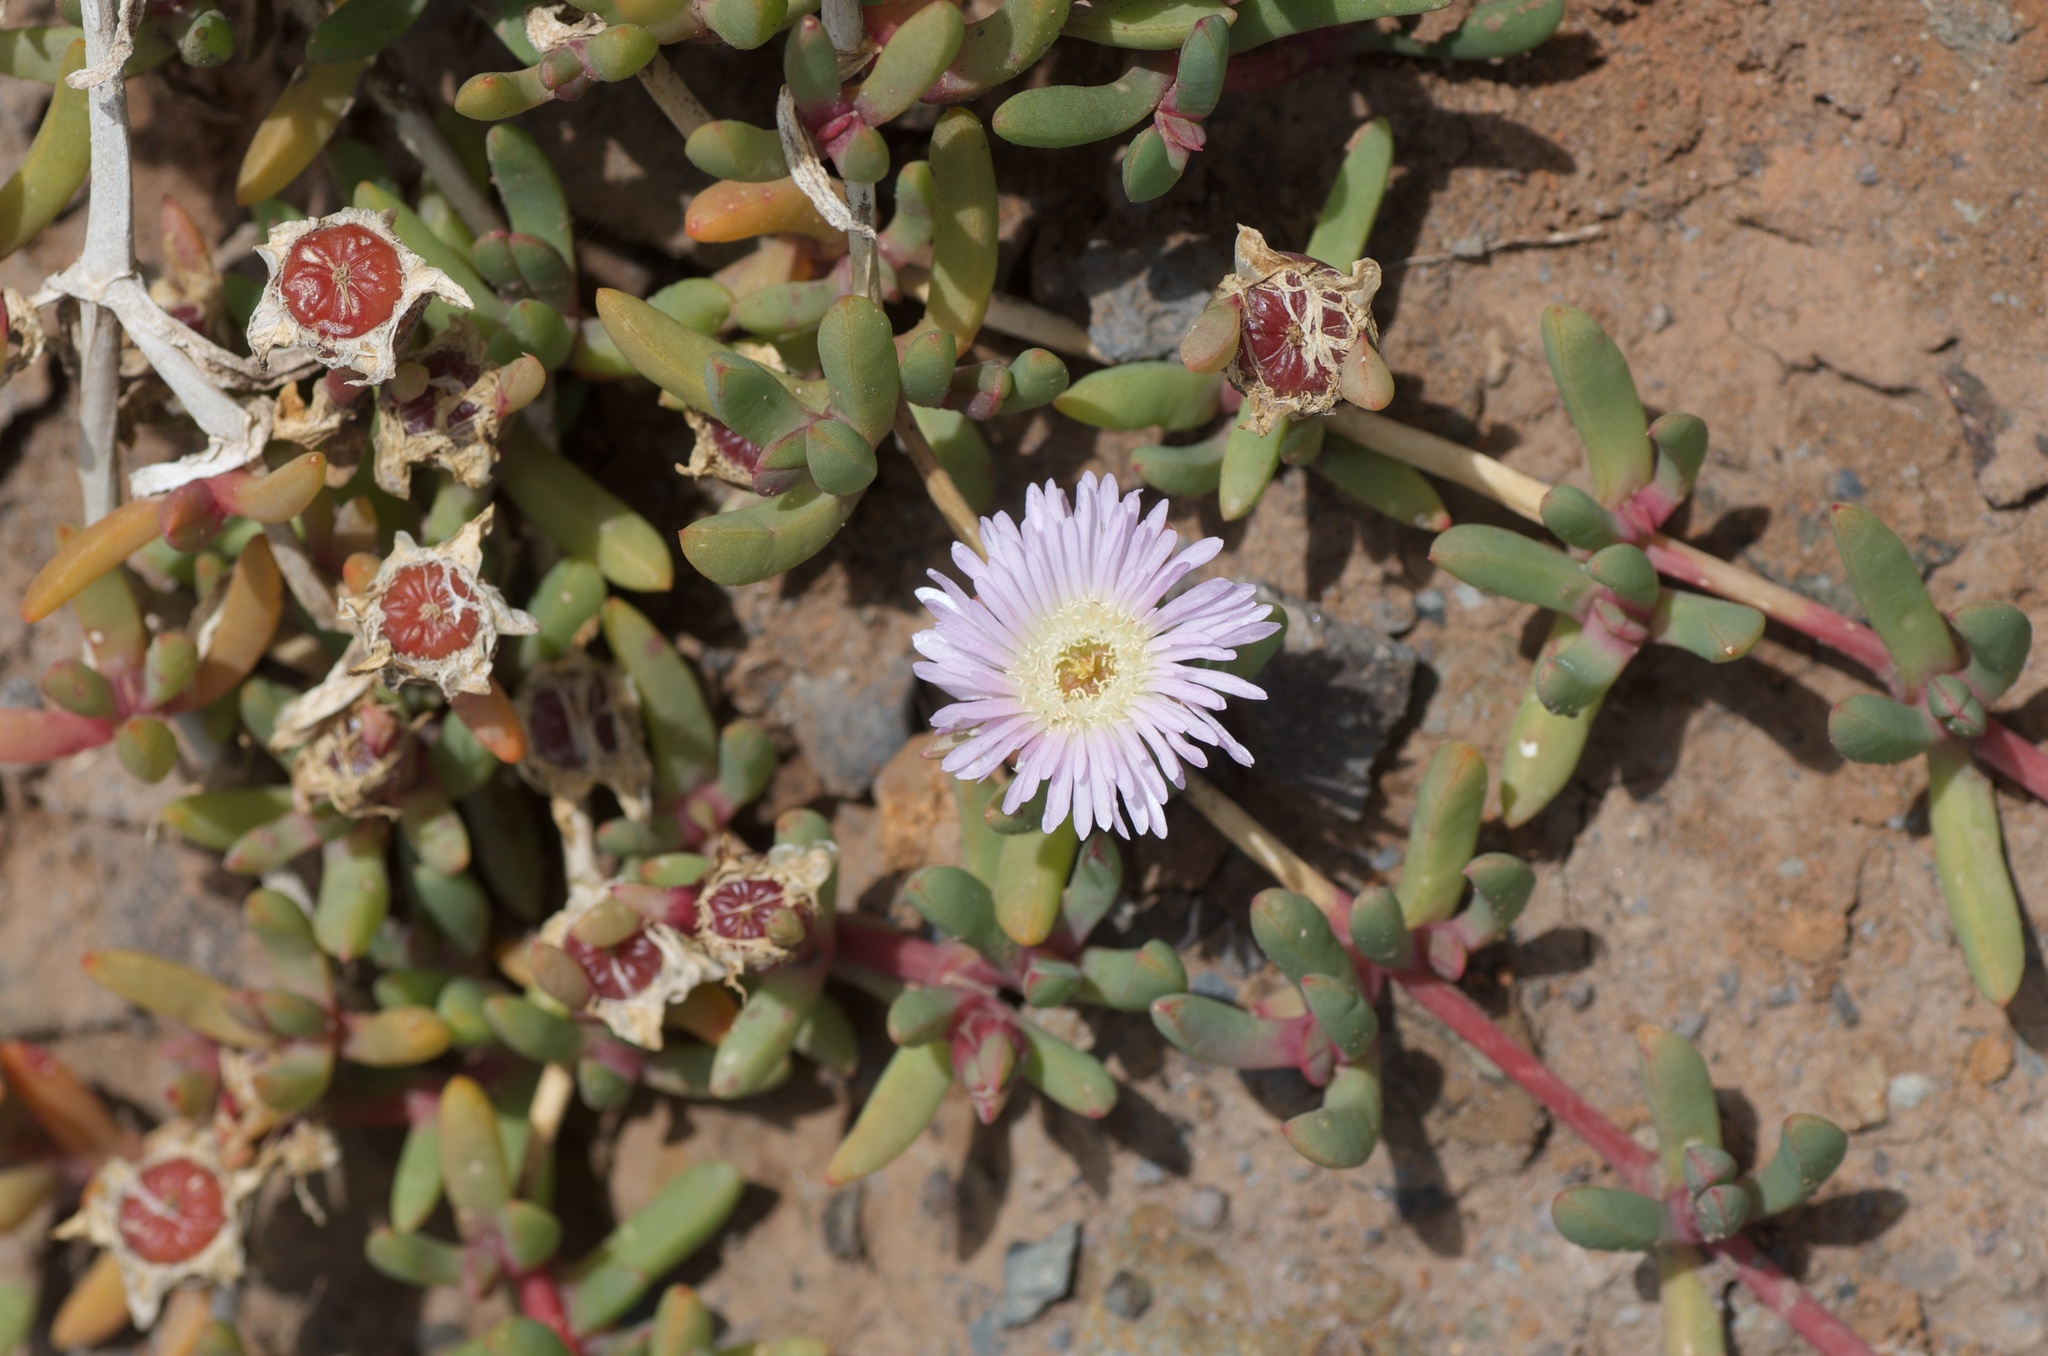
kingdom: Plantae
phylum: Tracheophyta
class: Magnoliopsida
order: Caryophyllales
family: Aizoaceae
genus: Disphyma
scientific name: Disphyma australe
